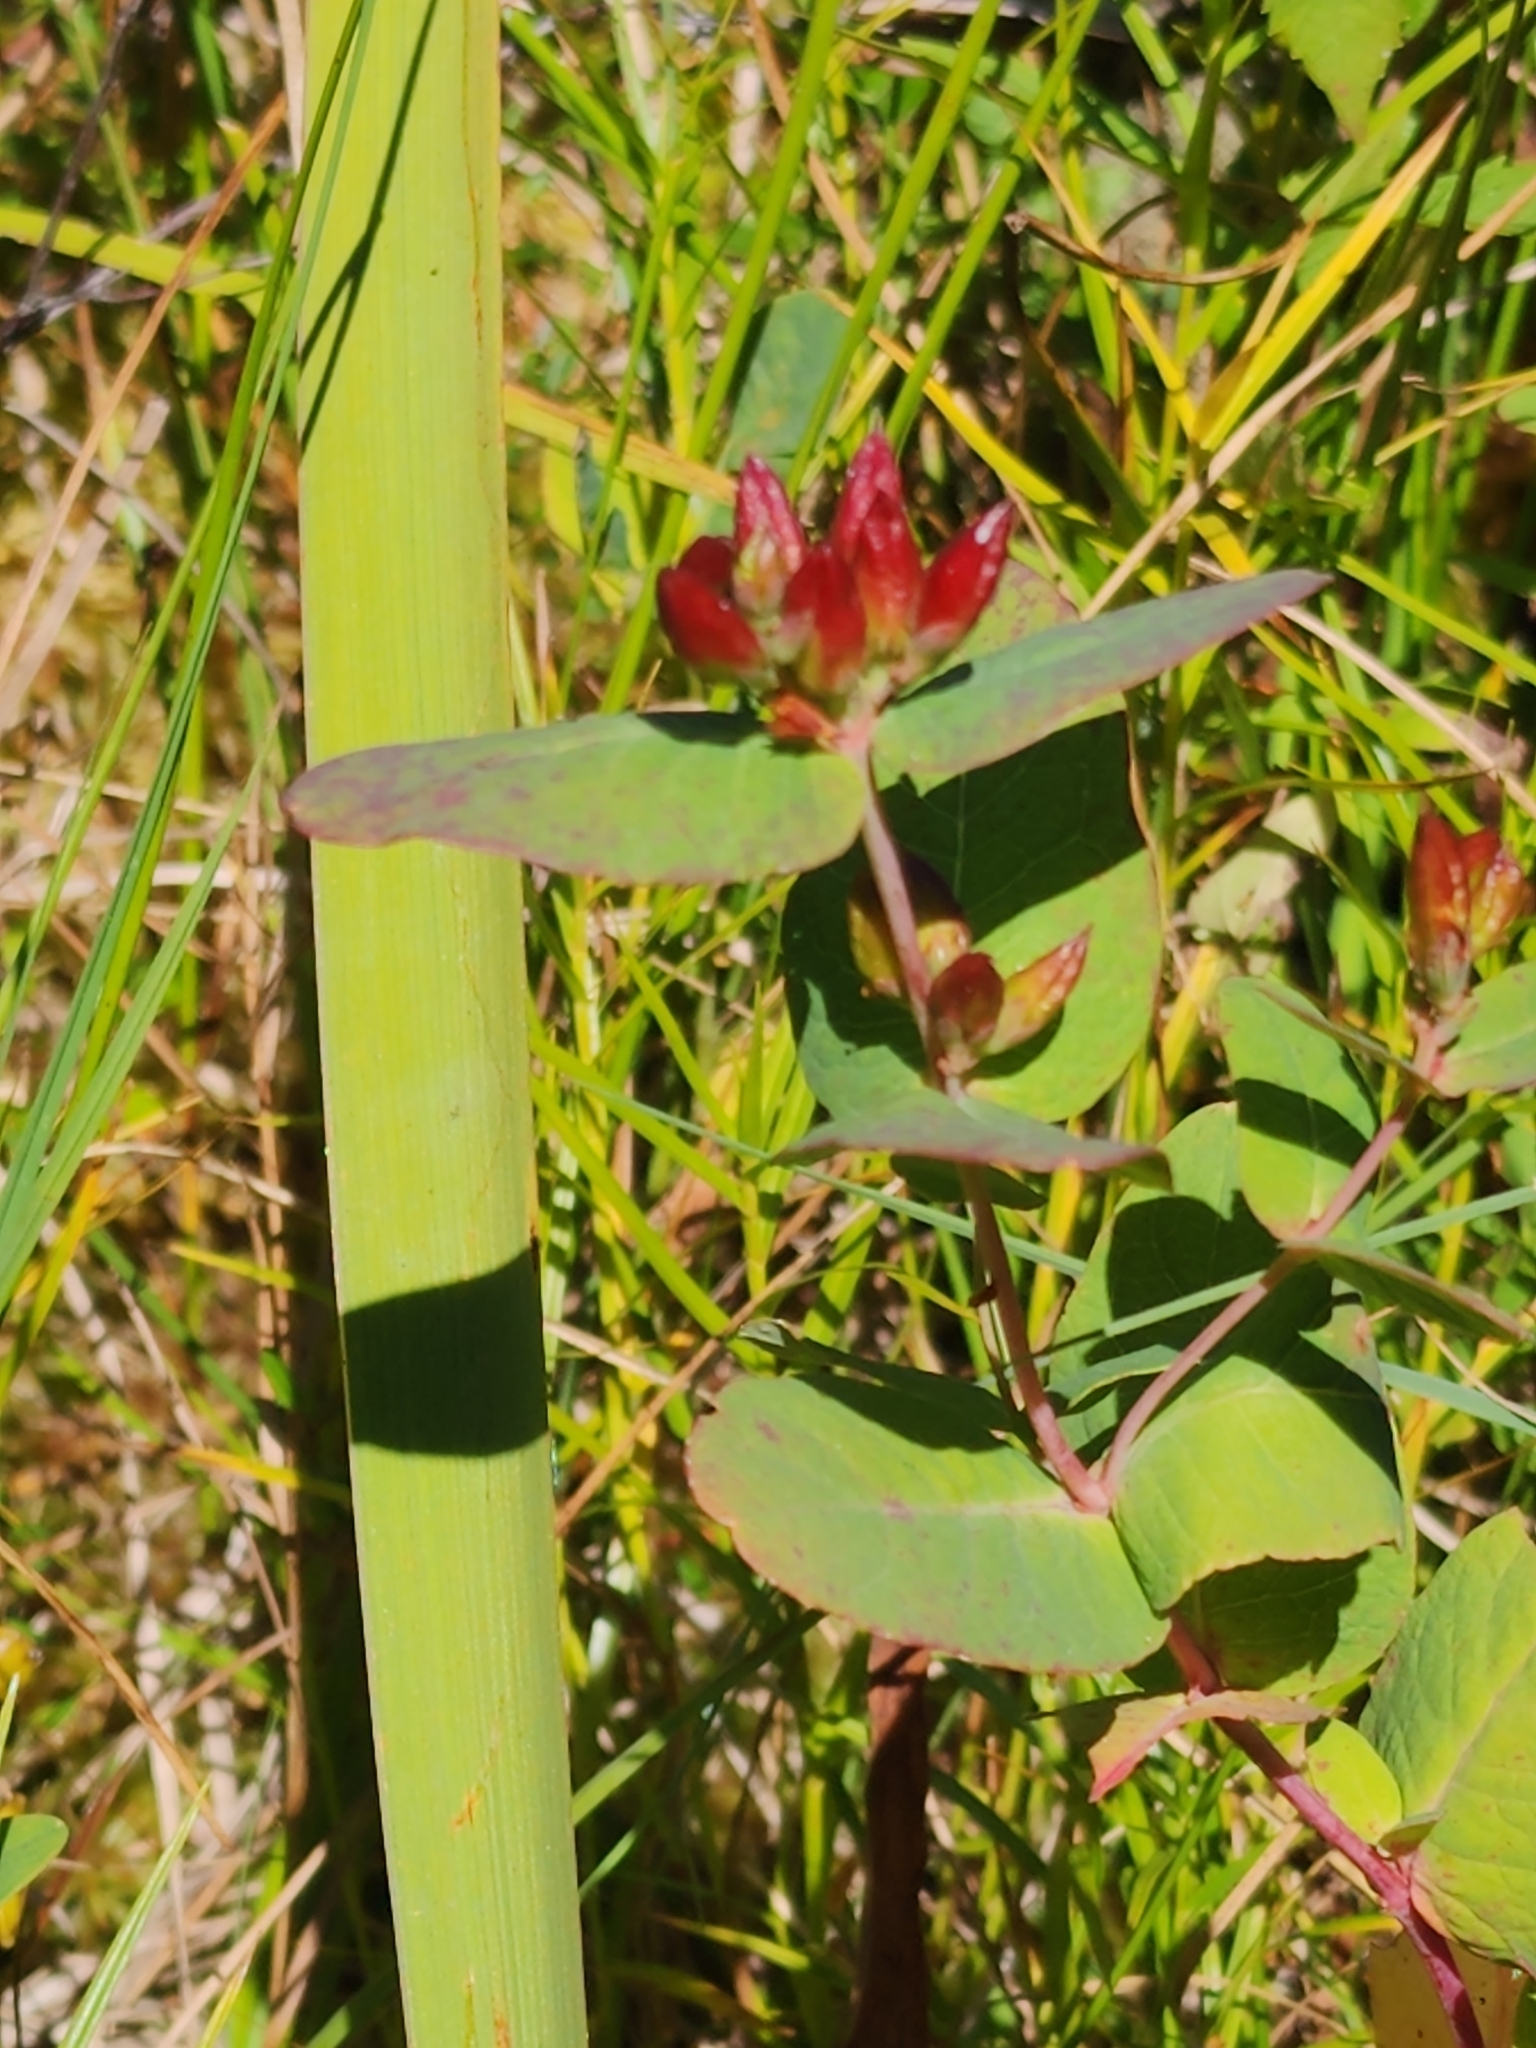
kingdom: Plantae
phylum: Tracheophyta
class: Magnoliopsida
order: Malpighiales
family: Hypericaceae
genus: Triadenum
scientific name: Triadenum fraseri
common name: Fraser's marsh st. johnswort
